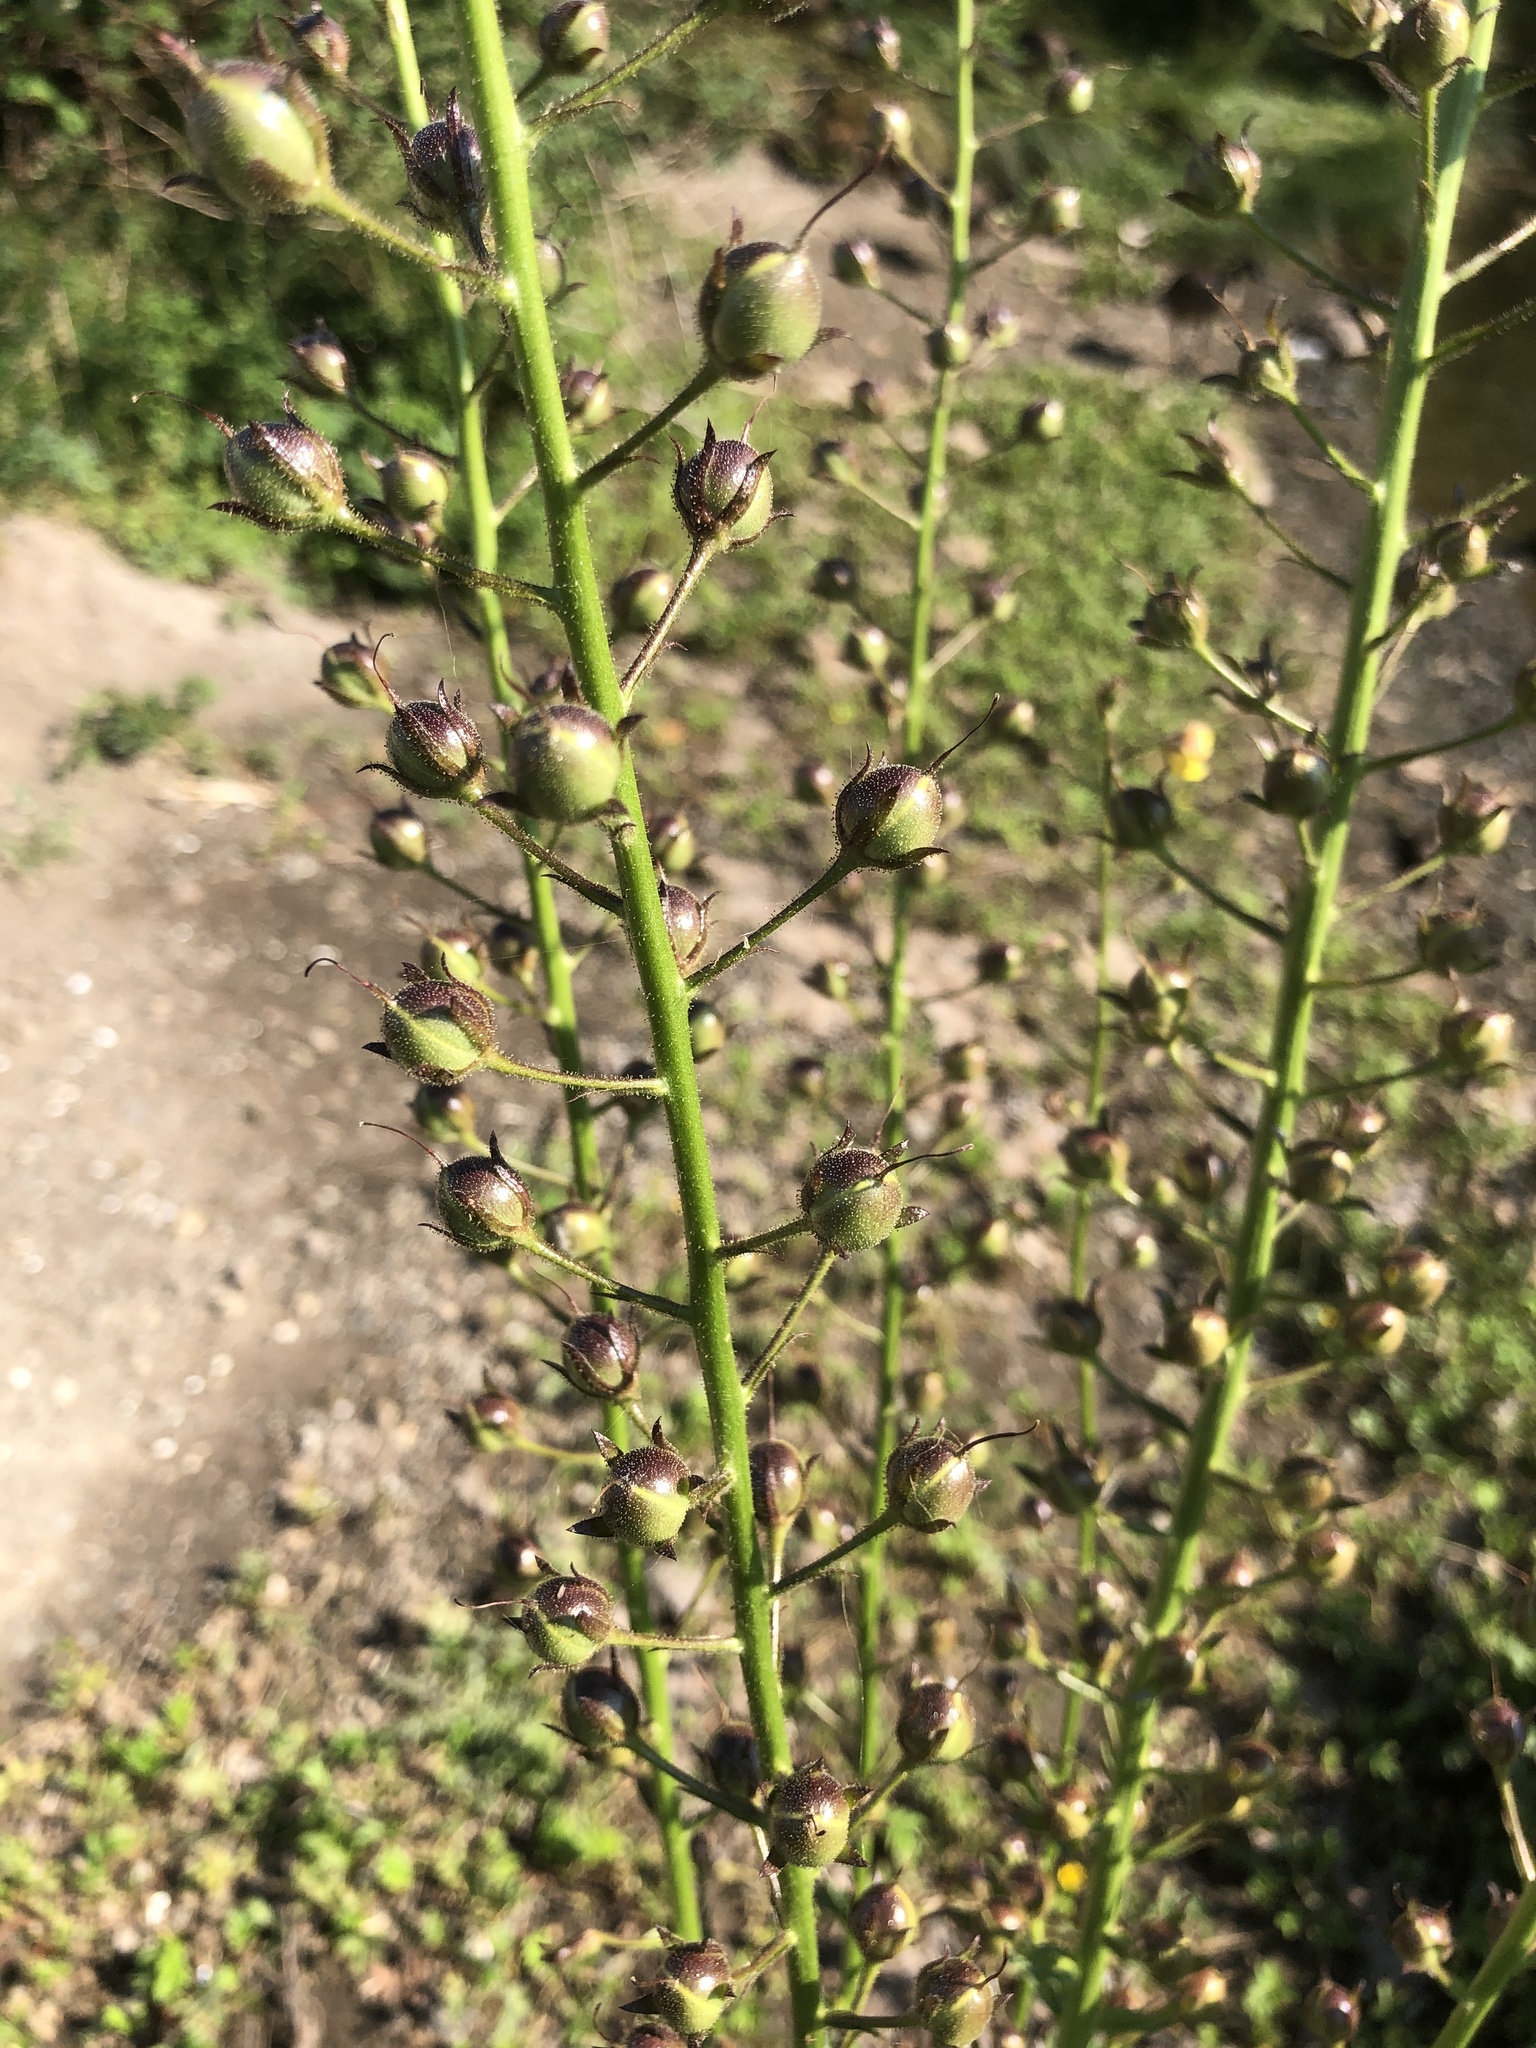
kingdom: Plantae
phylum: Tracheophyta
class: Magnoliopsida
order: Lamiales
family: Scrophulariaceae
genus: Verbascum
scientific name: Verbascum blattaria
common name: Moth mullein
